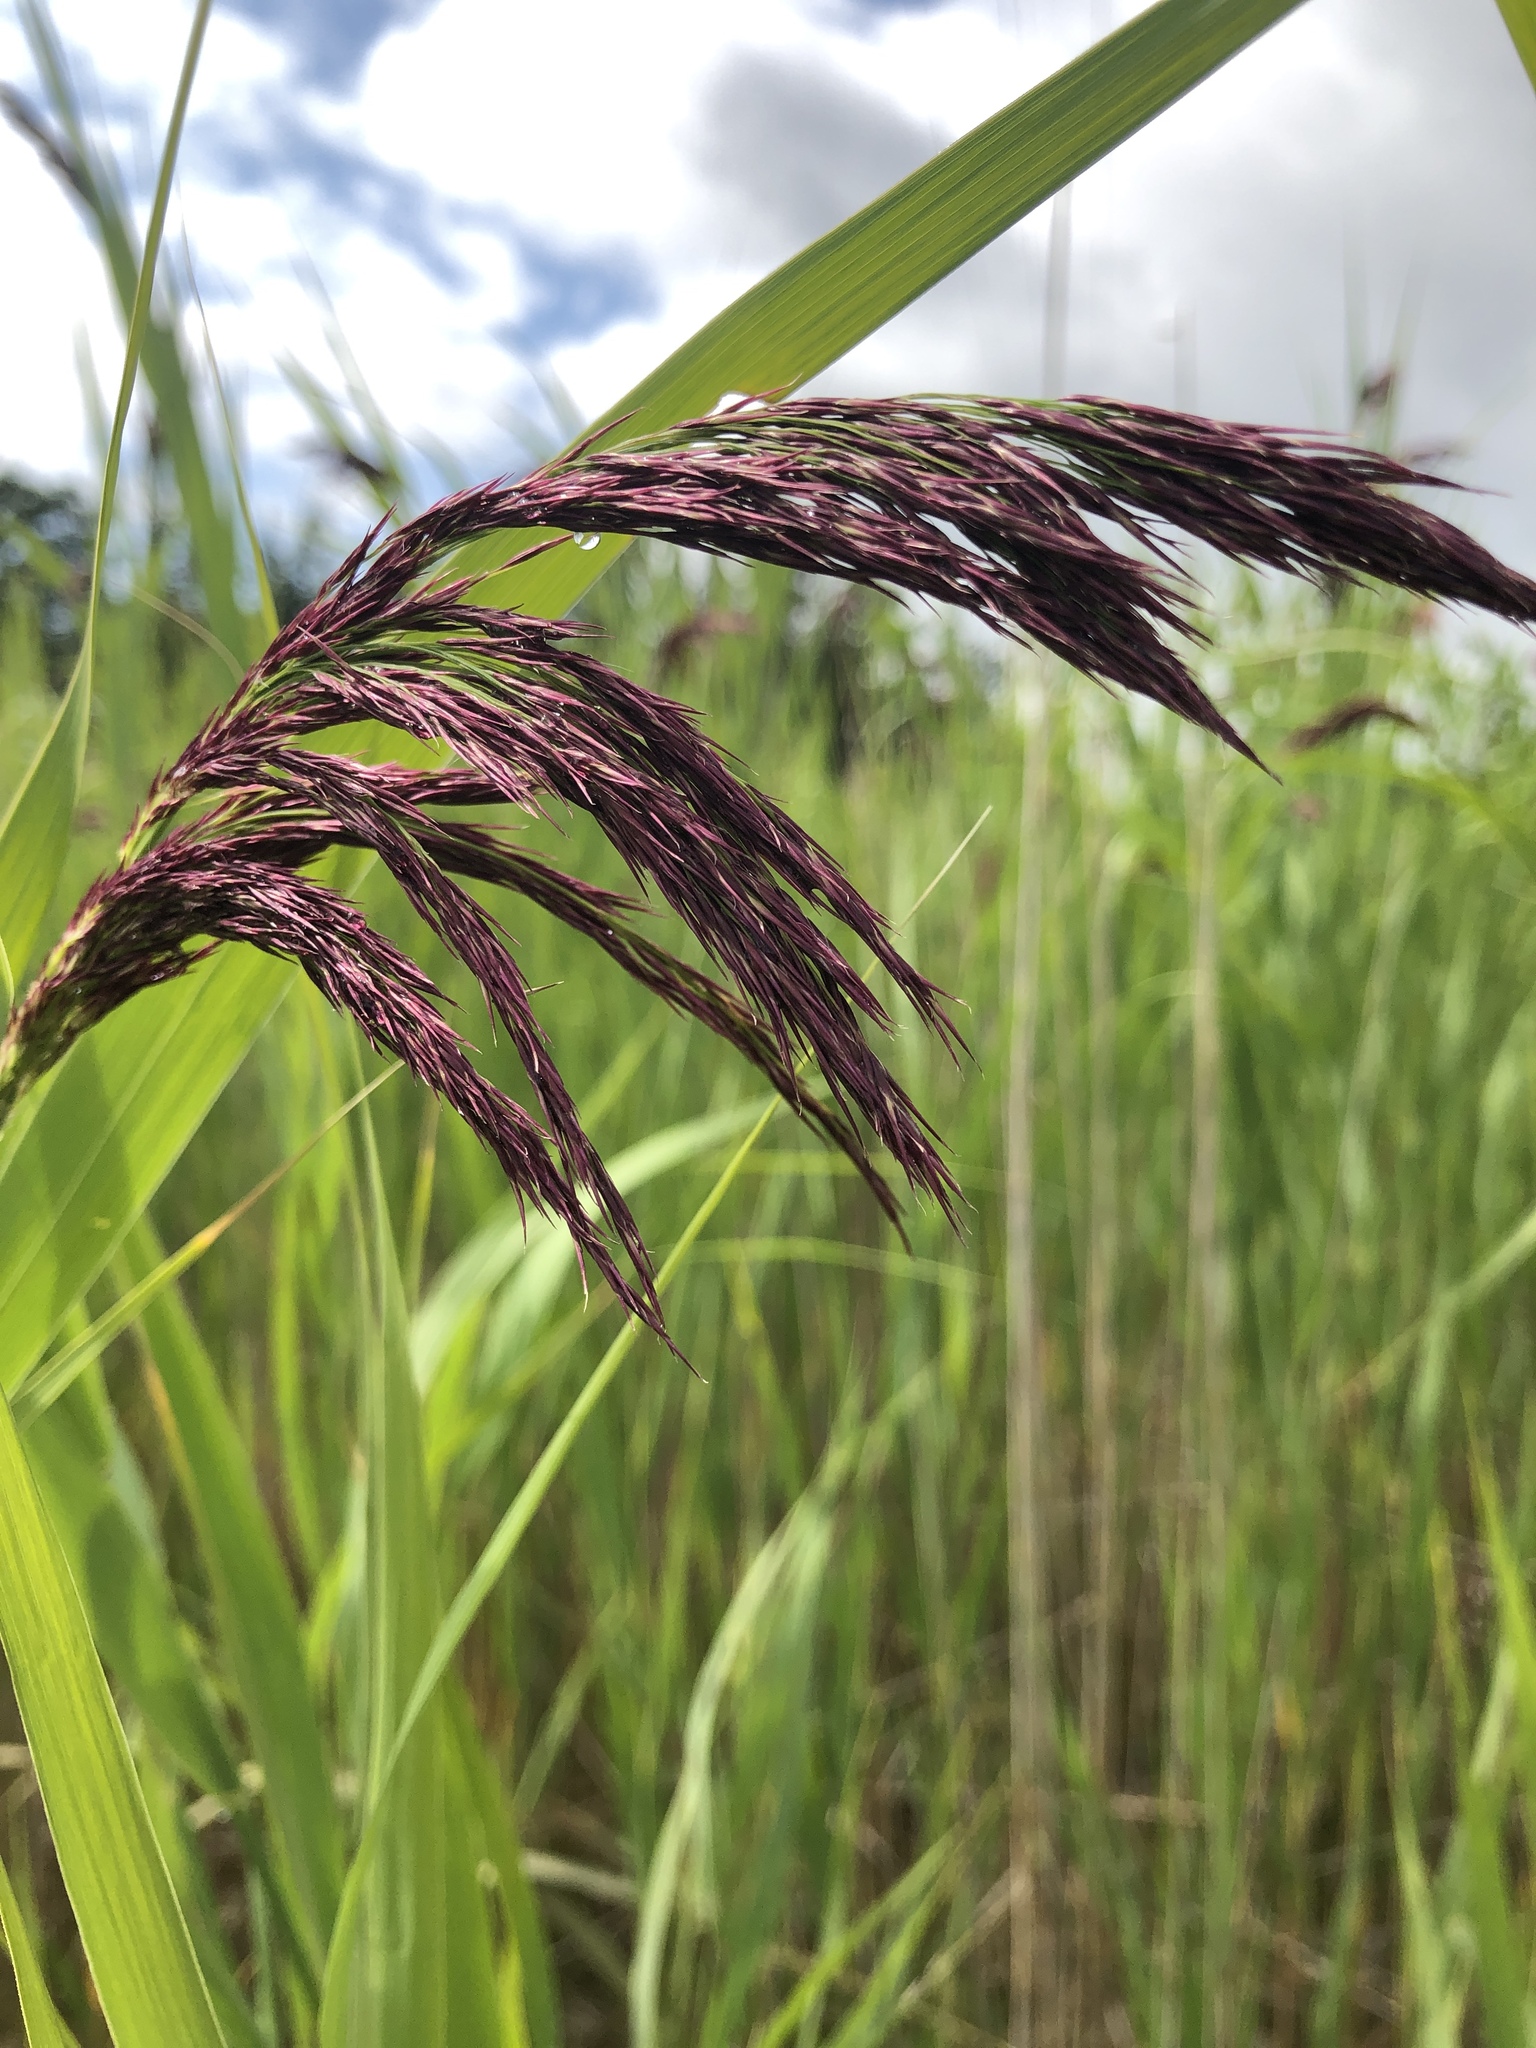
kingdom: Plantae
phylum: Tracheophyta
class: Liliopsida
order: Poales
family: Poaceae
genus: Phragmites
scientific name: Phragmites australis
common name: Common reed
